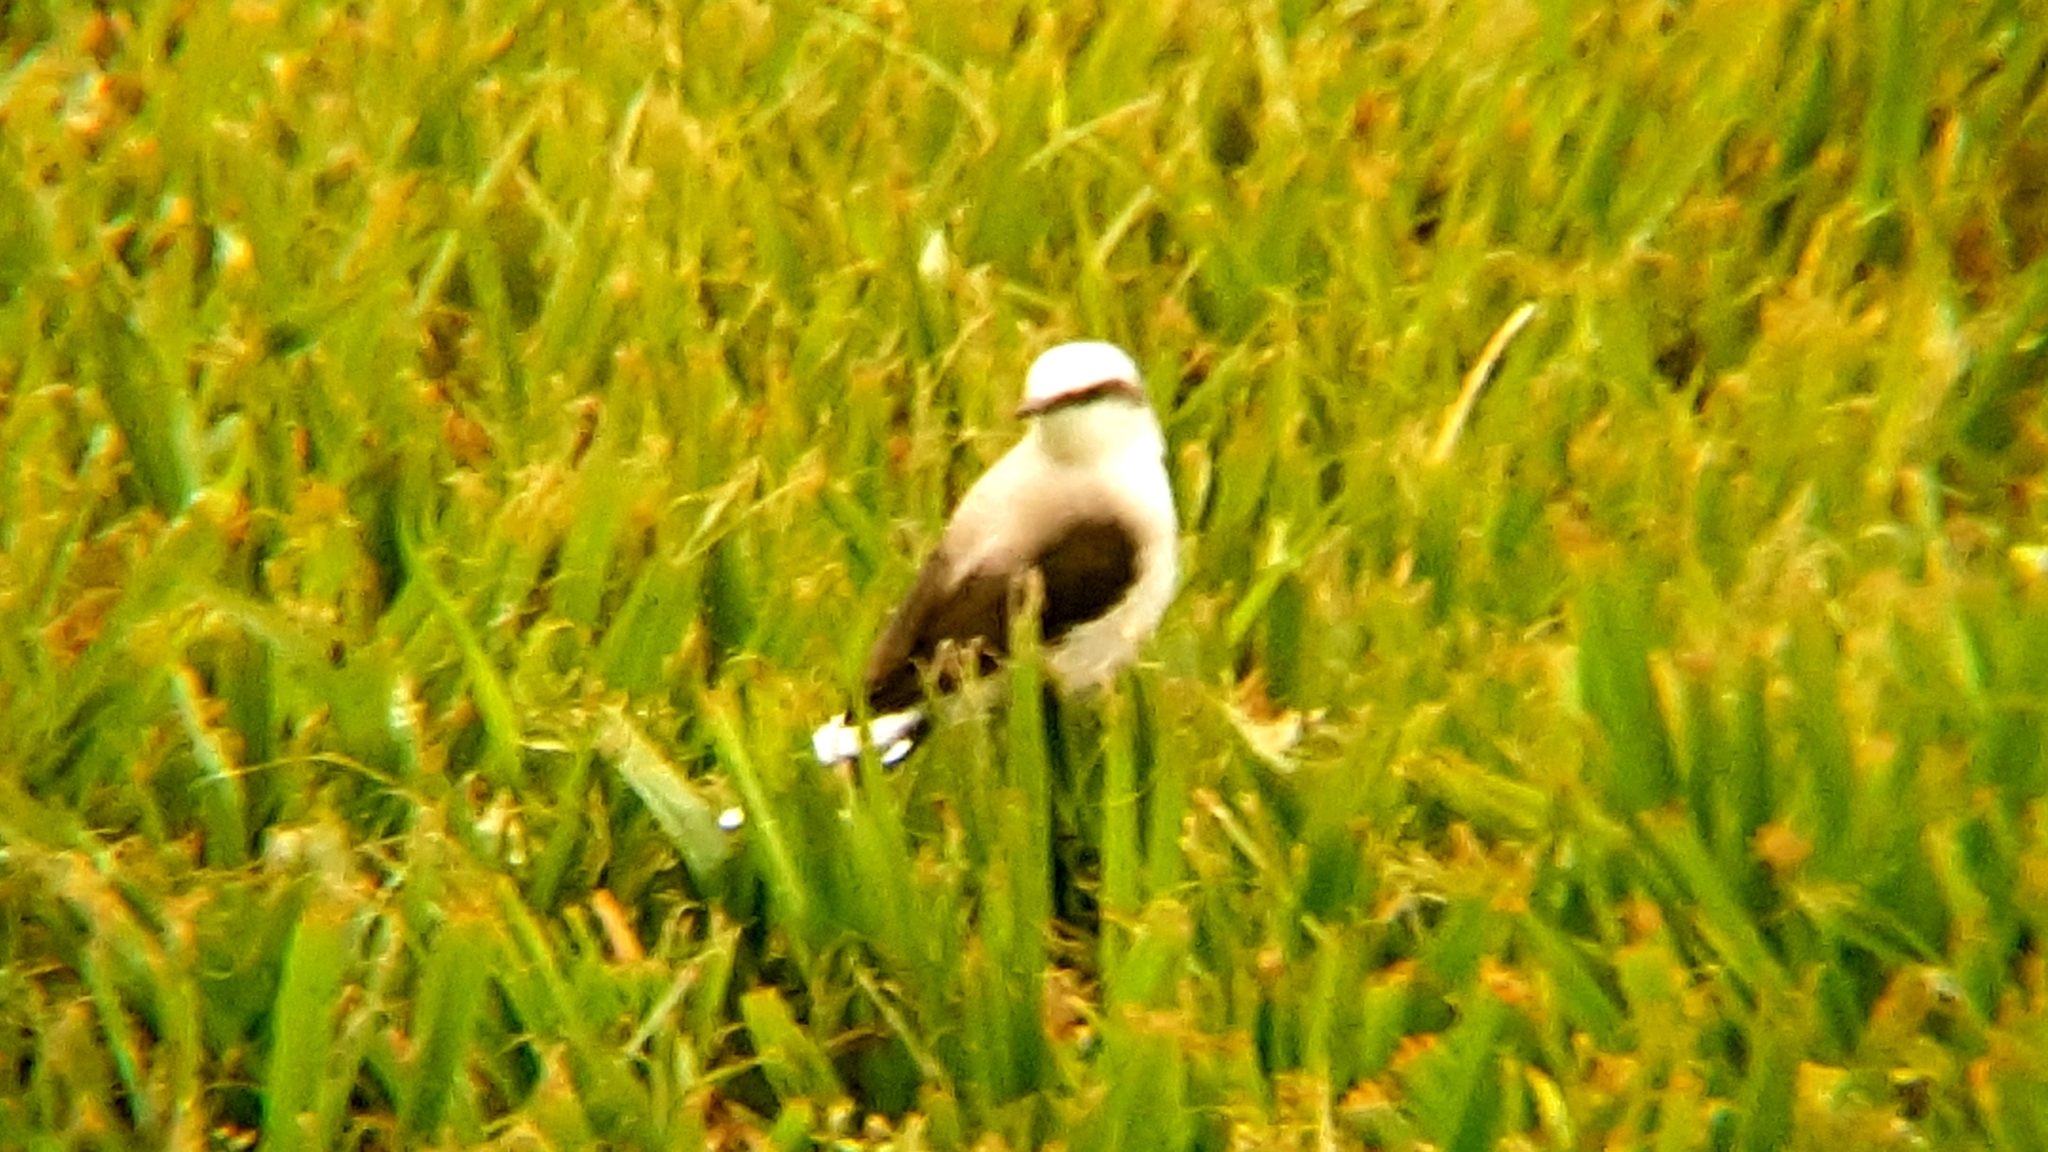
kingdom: Animalia
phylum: Chordata
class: Aves
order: Passeriformes
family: Tyrannidae
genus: Fluvicola
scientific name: Fluvicola nengeta
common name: Masked water tyrant
